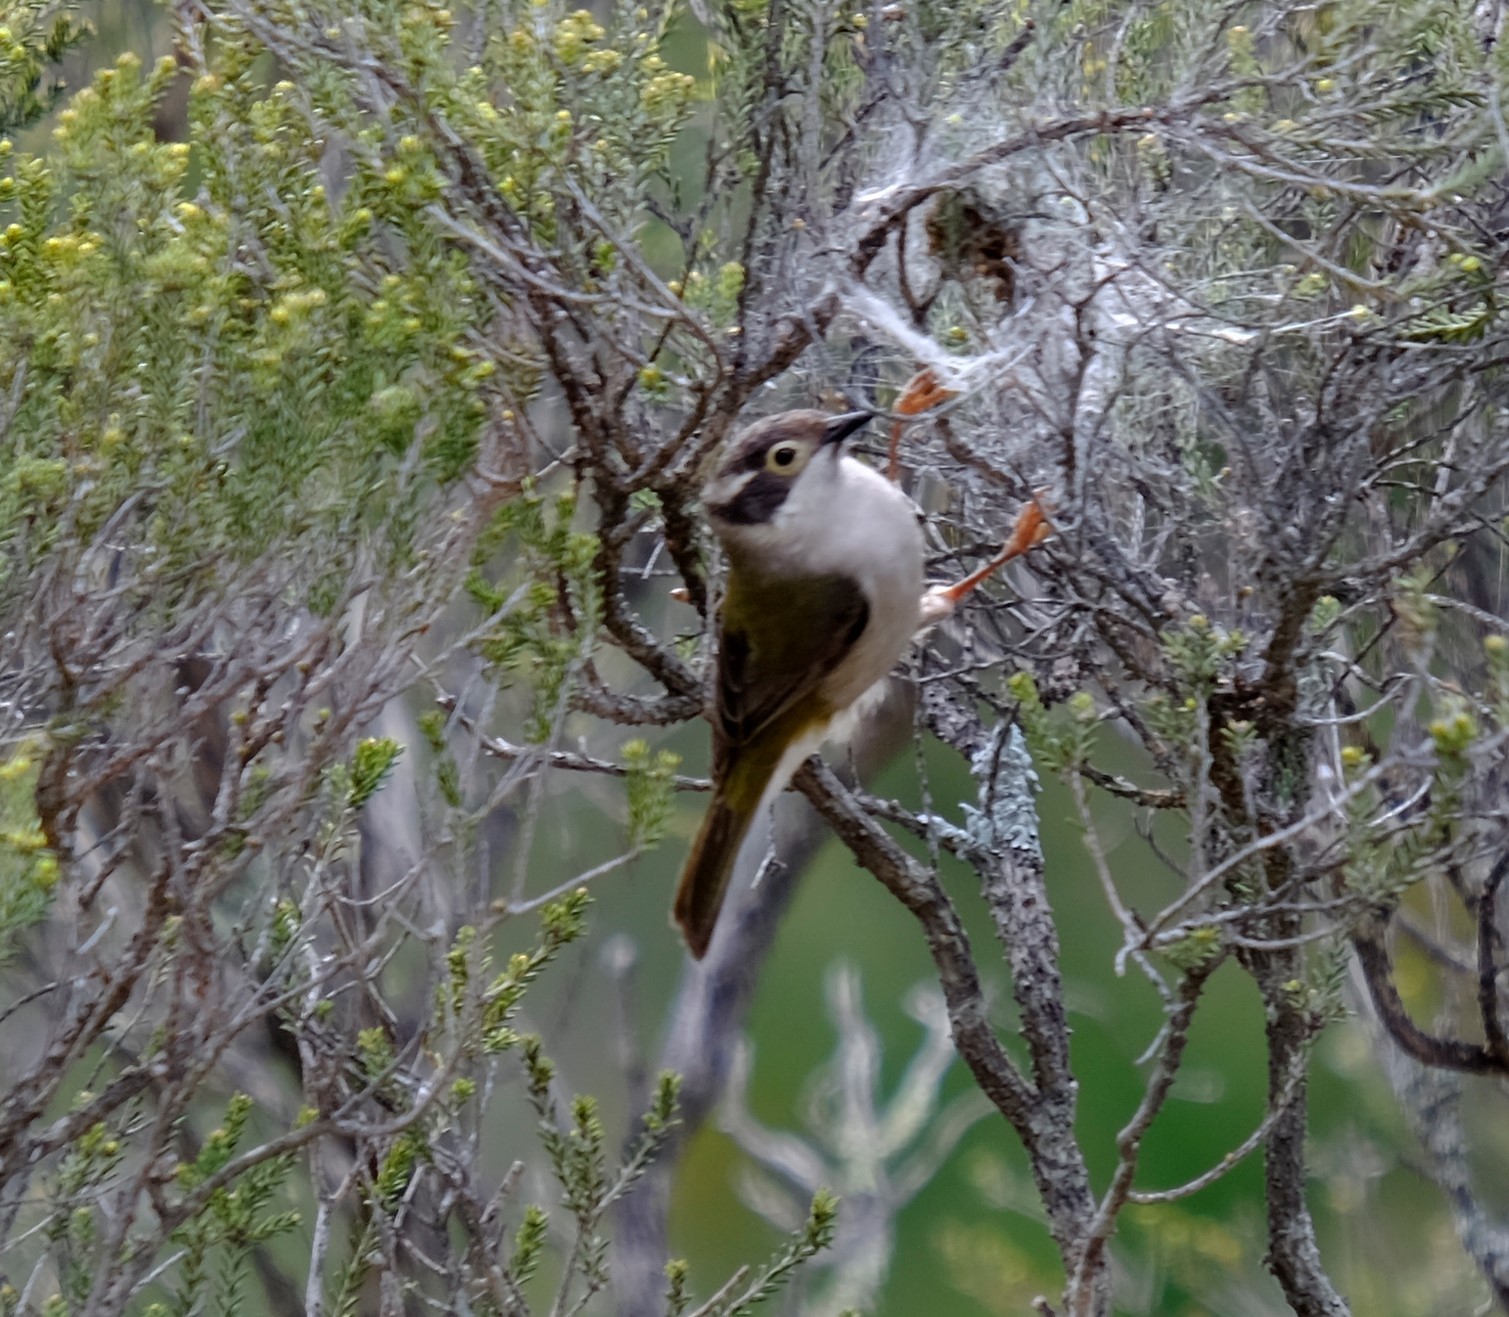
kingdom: Animalia
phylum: Chordata
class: Aves
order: Passeriformes
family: Meliphagidae
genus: Melithreptus
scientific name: Melithreptus brevirostris
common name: Brown-headed honeyeater
